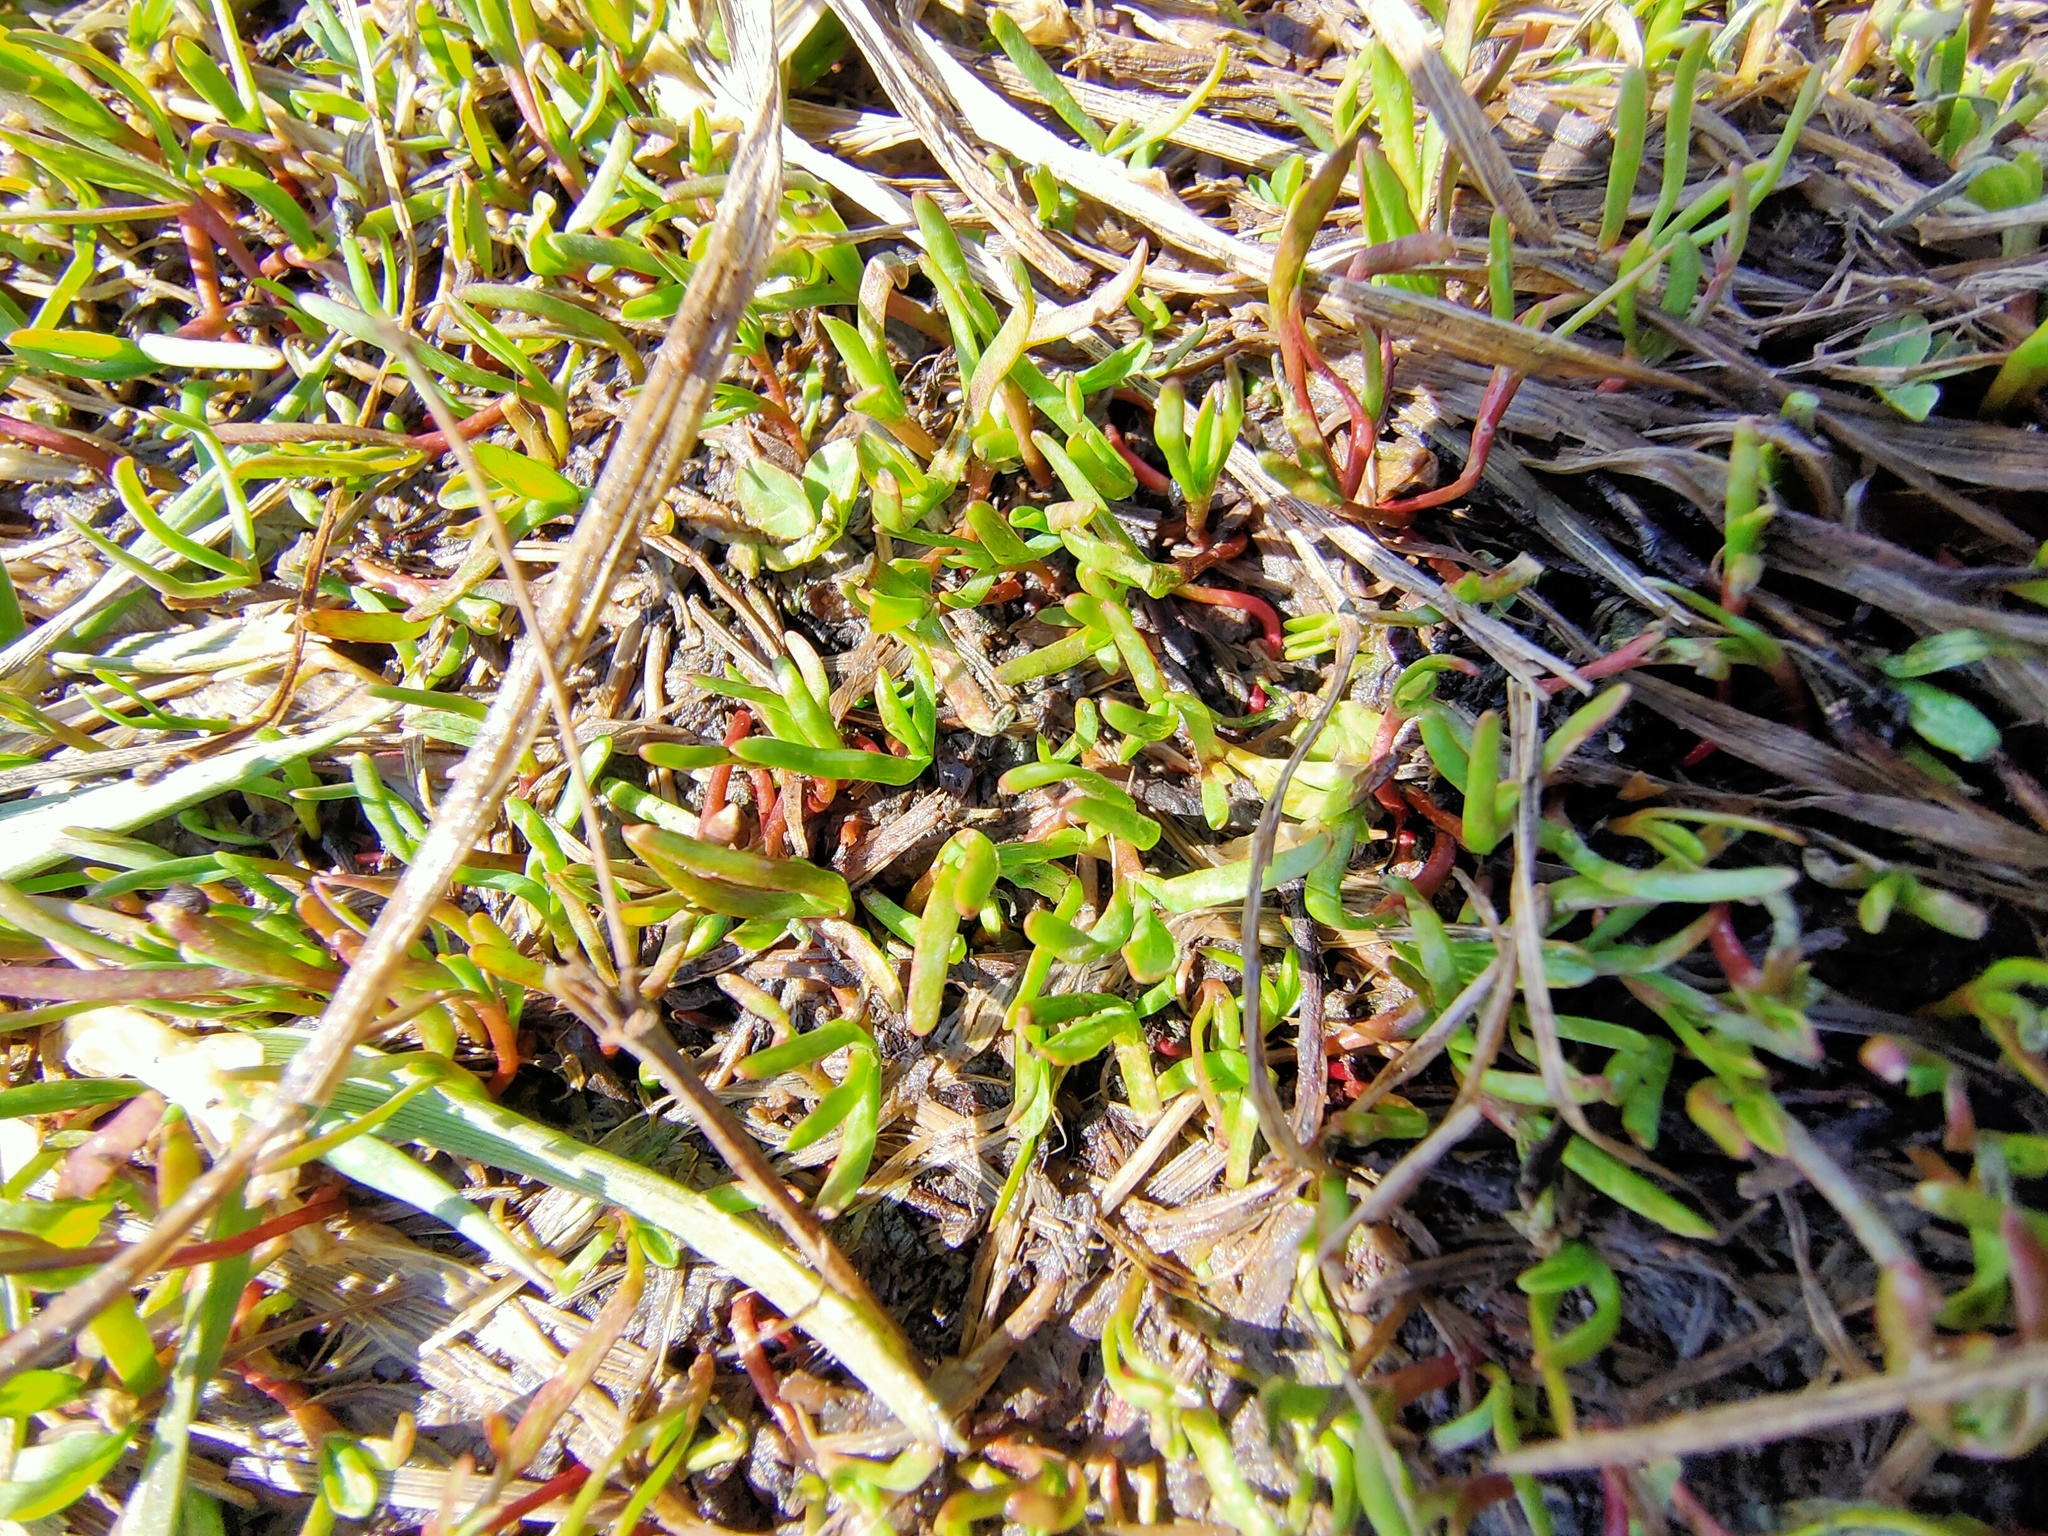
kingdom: Plantae
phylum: Tracheophyta
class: Magnoliopsida
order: Caryophyllales
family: Polygonaceae
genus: Polygonum
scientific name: Polygonum aviculare
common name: Prostrate knotweed
